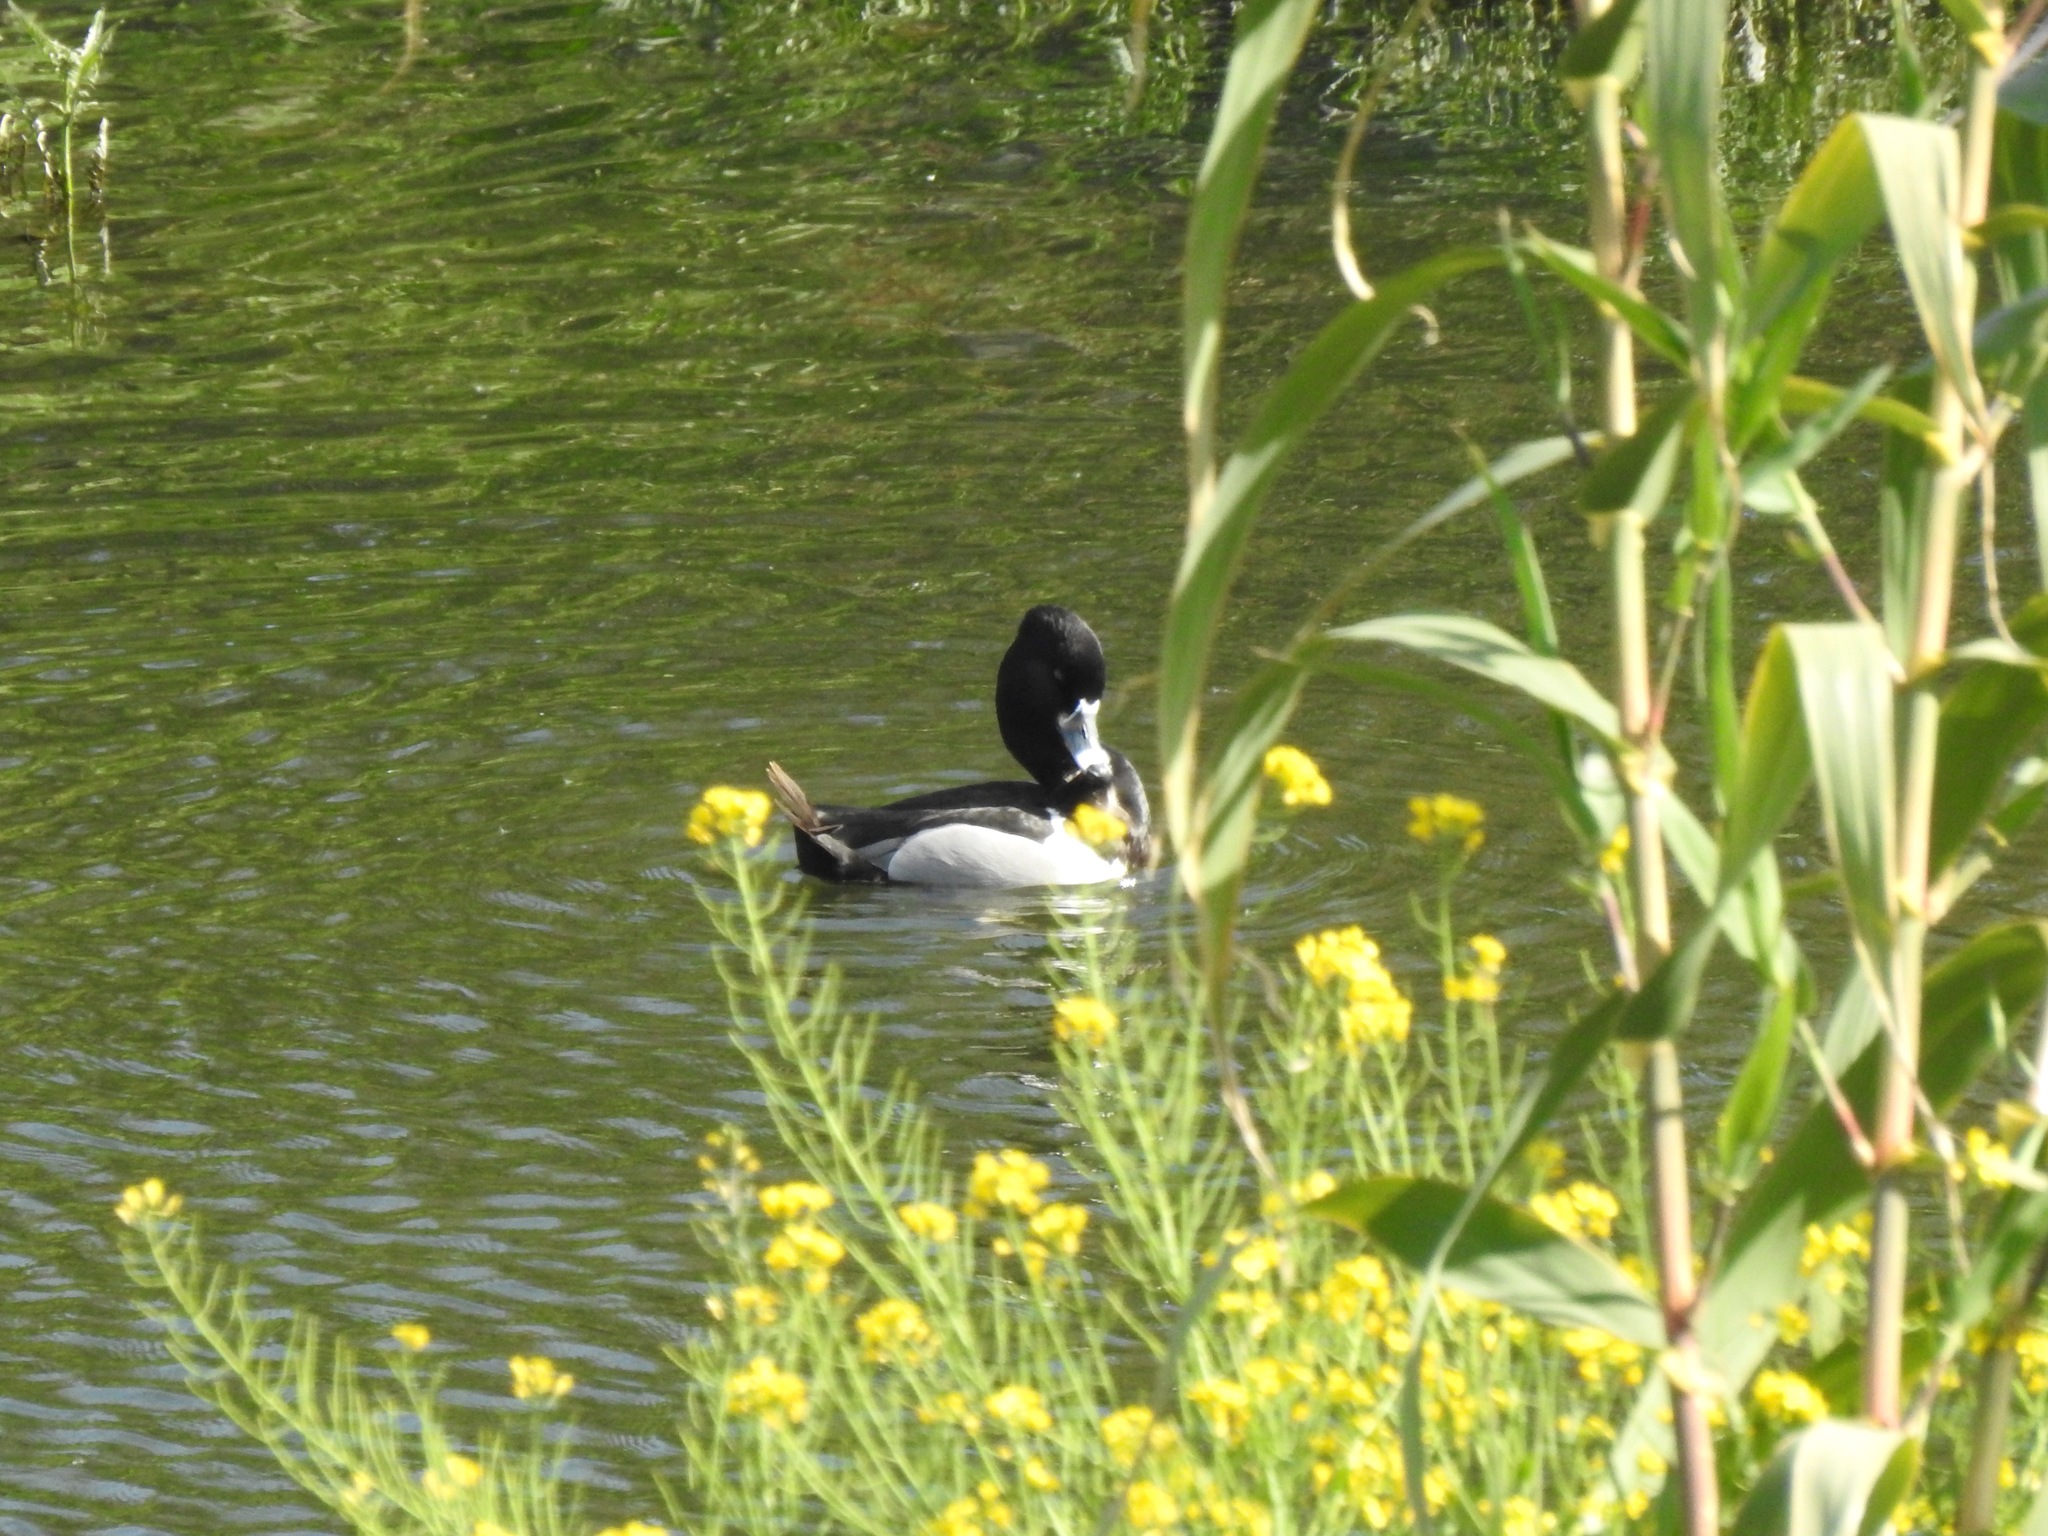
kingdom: Animalia
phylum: Chordata
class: Aves
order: Anseriformes
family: Anatidae
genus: Aythya
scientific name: Aythya collaris
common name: Ring-necked duck
